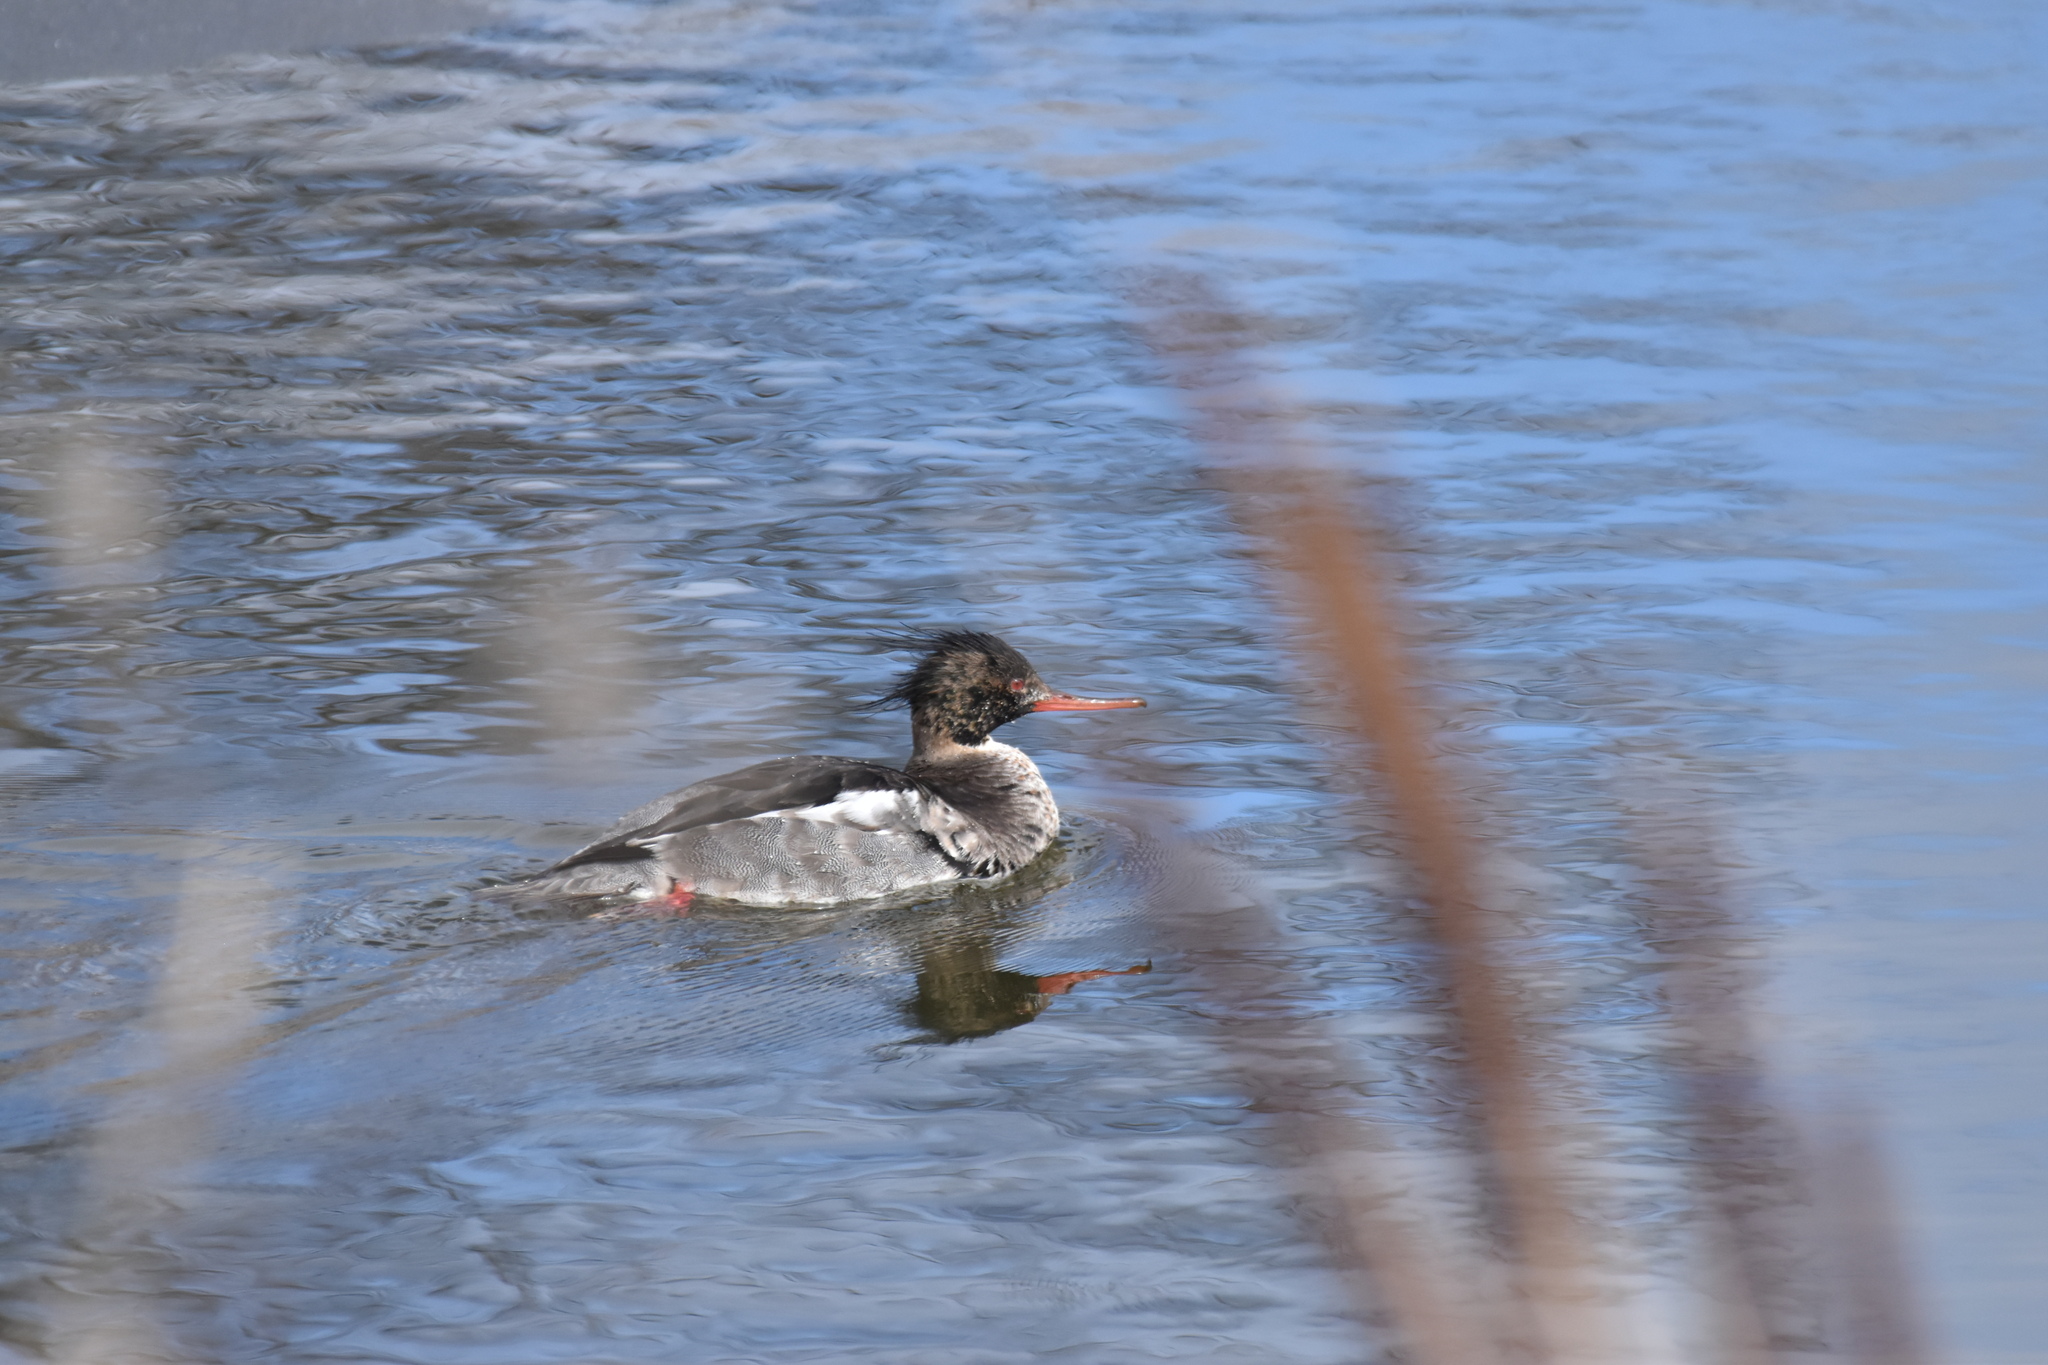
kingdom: Animalia
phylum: Chordata
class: Aves
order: Anseriformes
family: Anatidae
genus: Mergus
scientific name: Mergus serrator
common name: Red-breasted merganser
